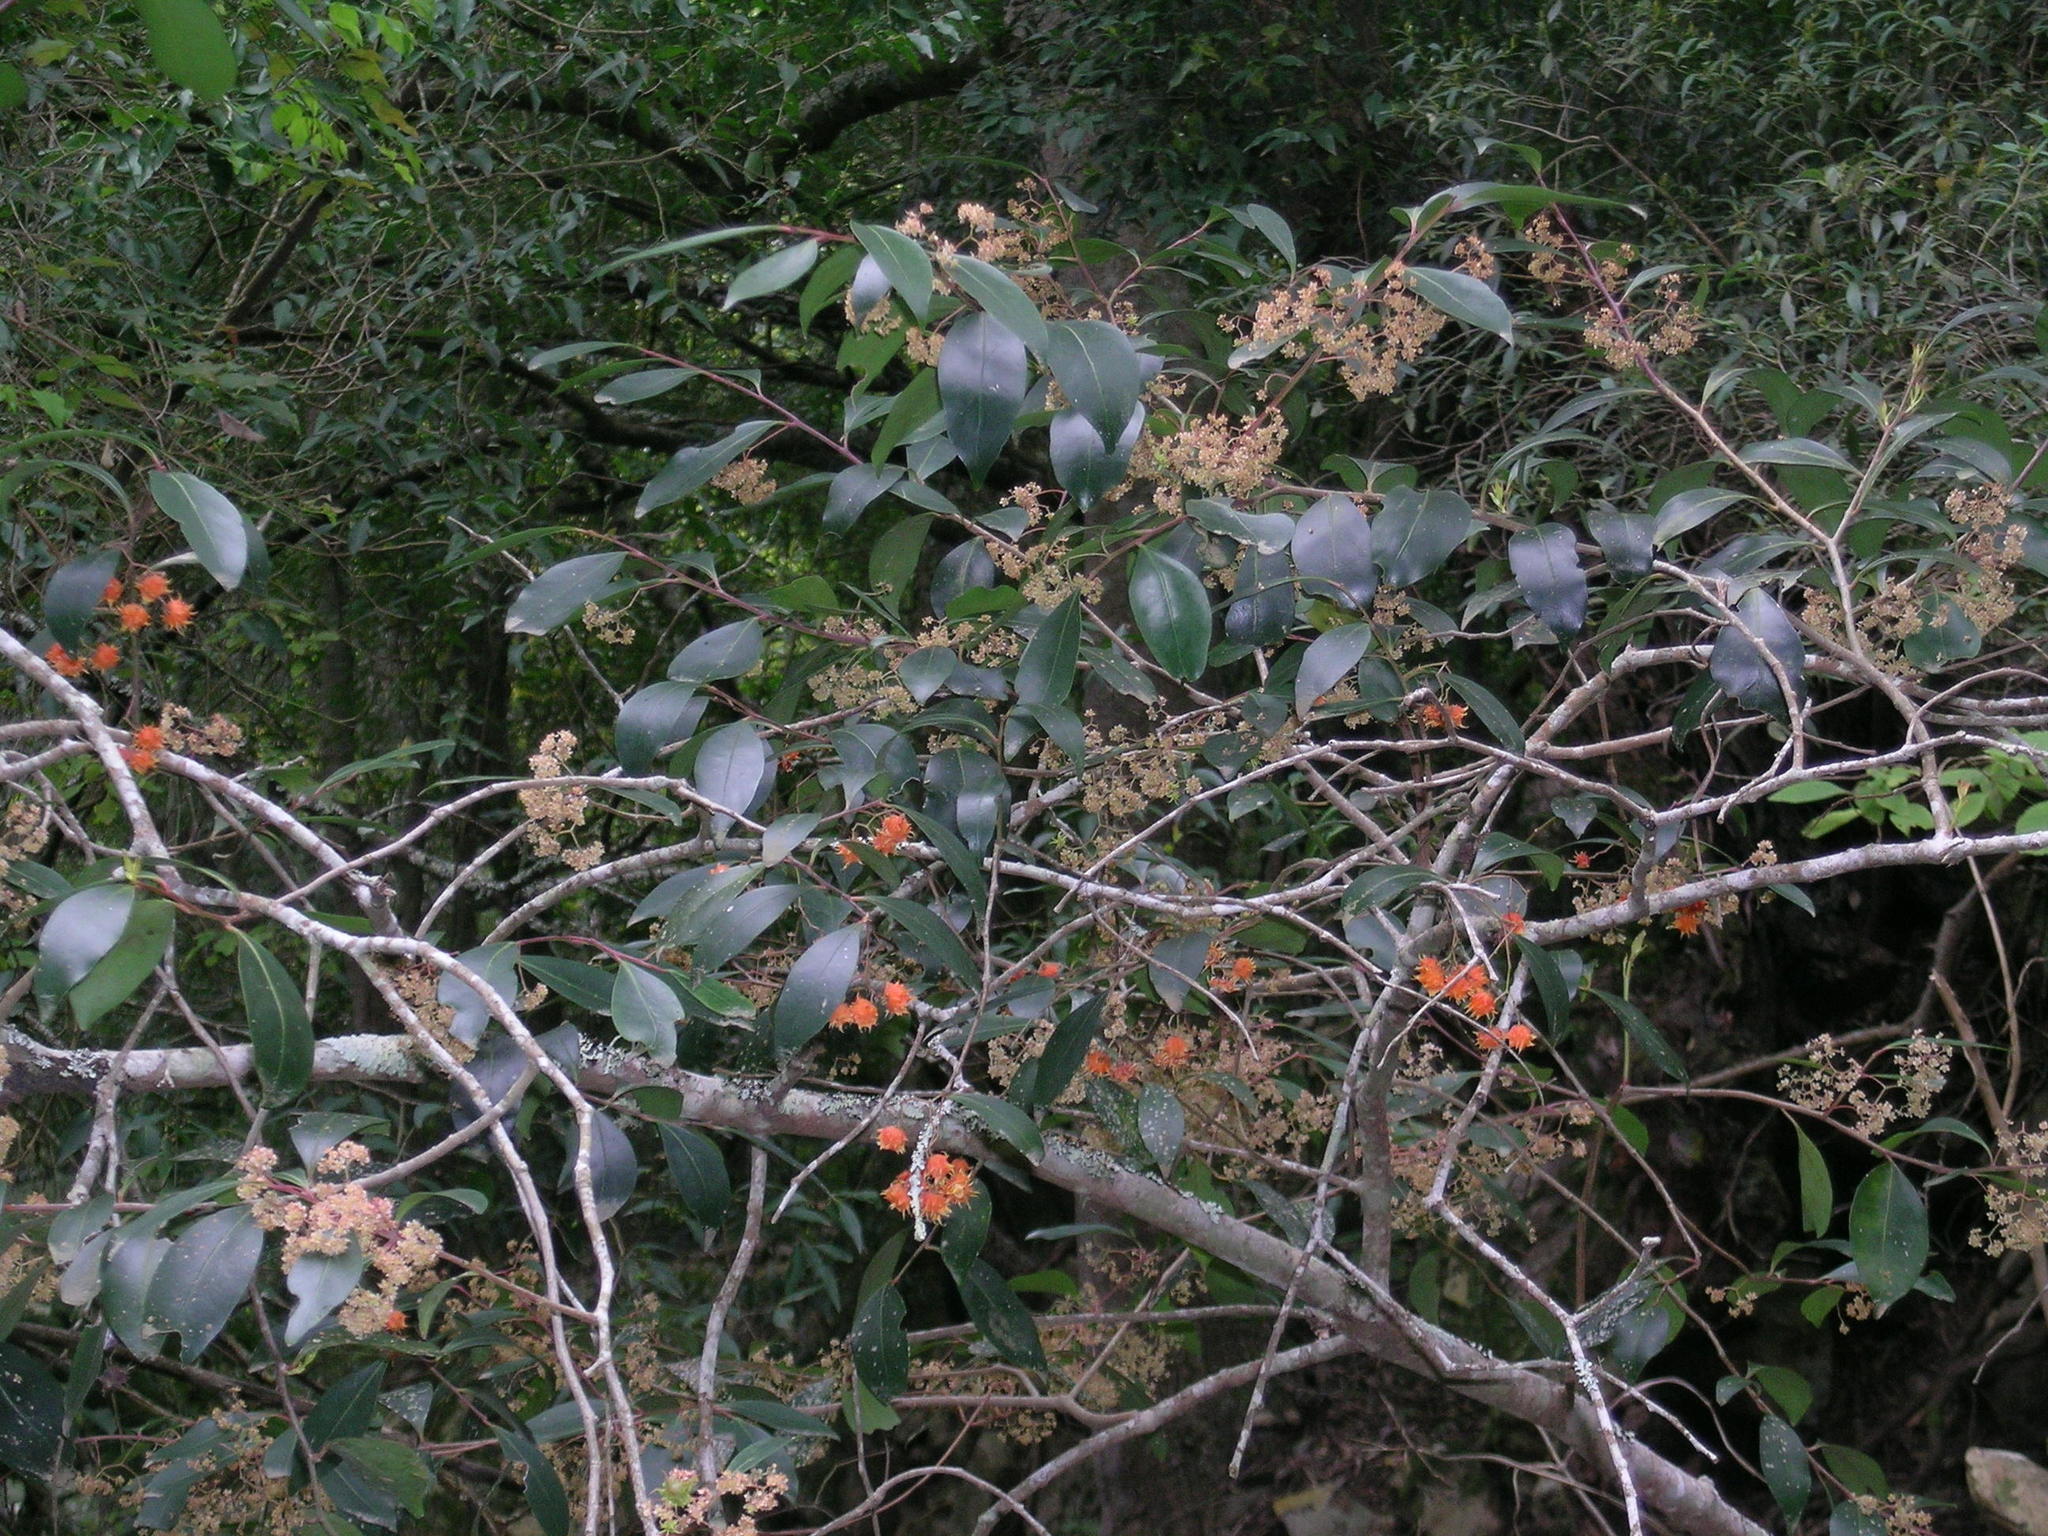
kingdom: Plantae
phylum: Tracheophyta
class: Magnoliopsida
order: Celastrales
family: Celastraceae
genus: Pterocelastrus
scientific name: Pterocelastrus rostratus
